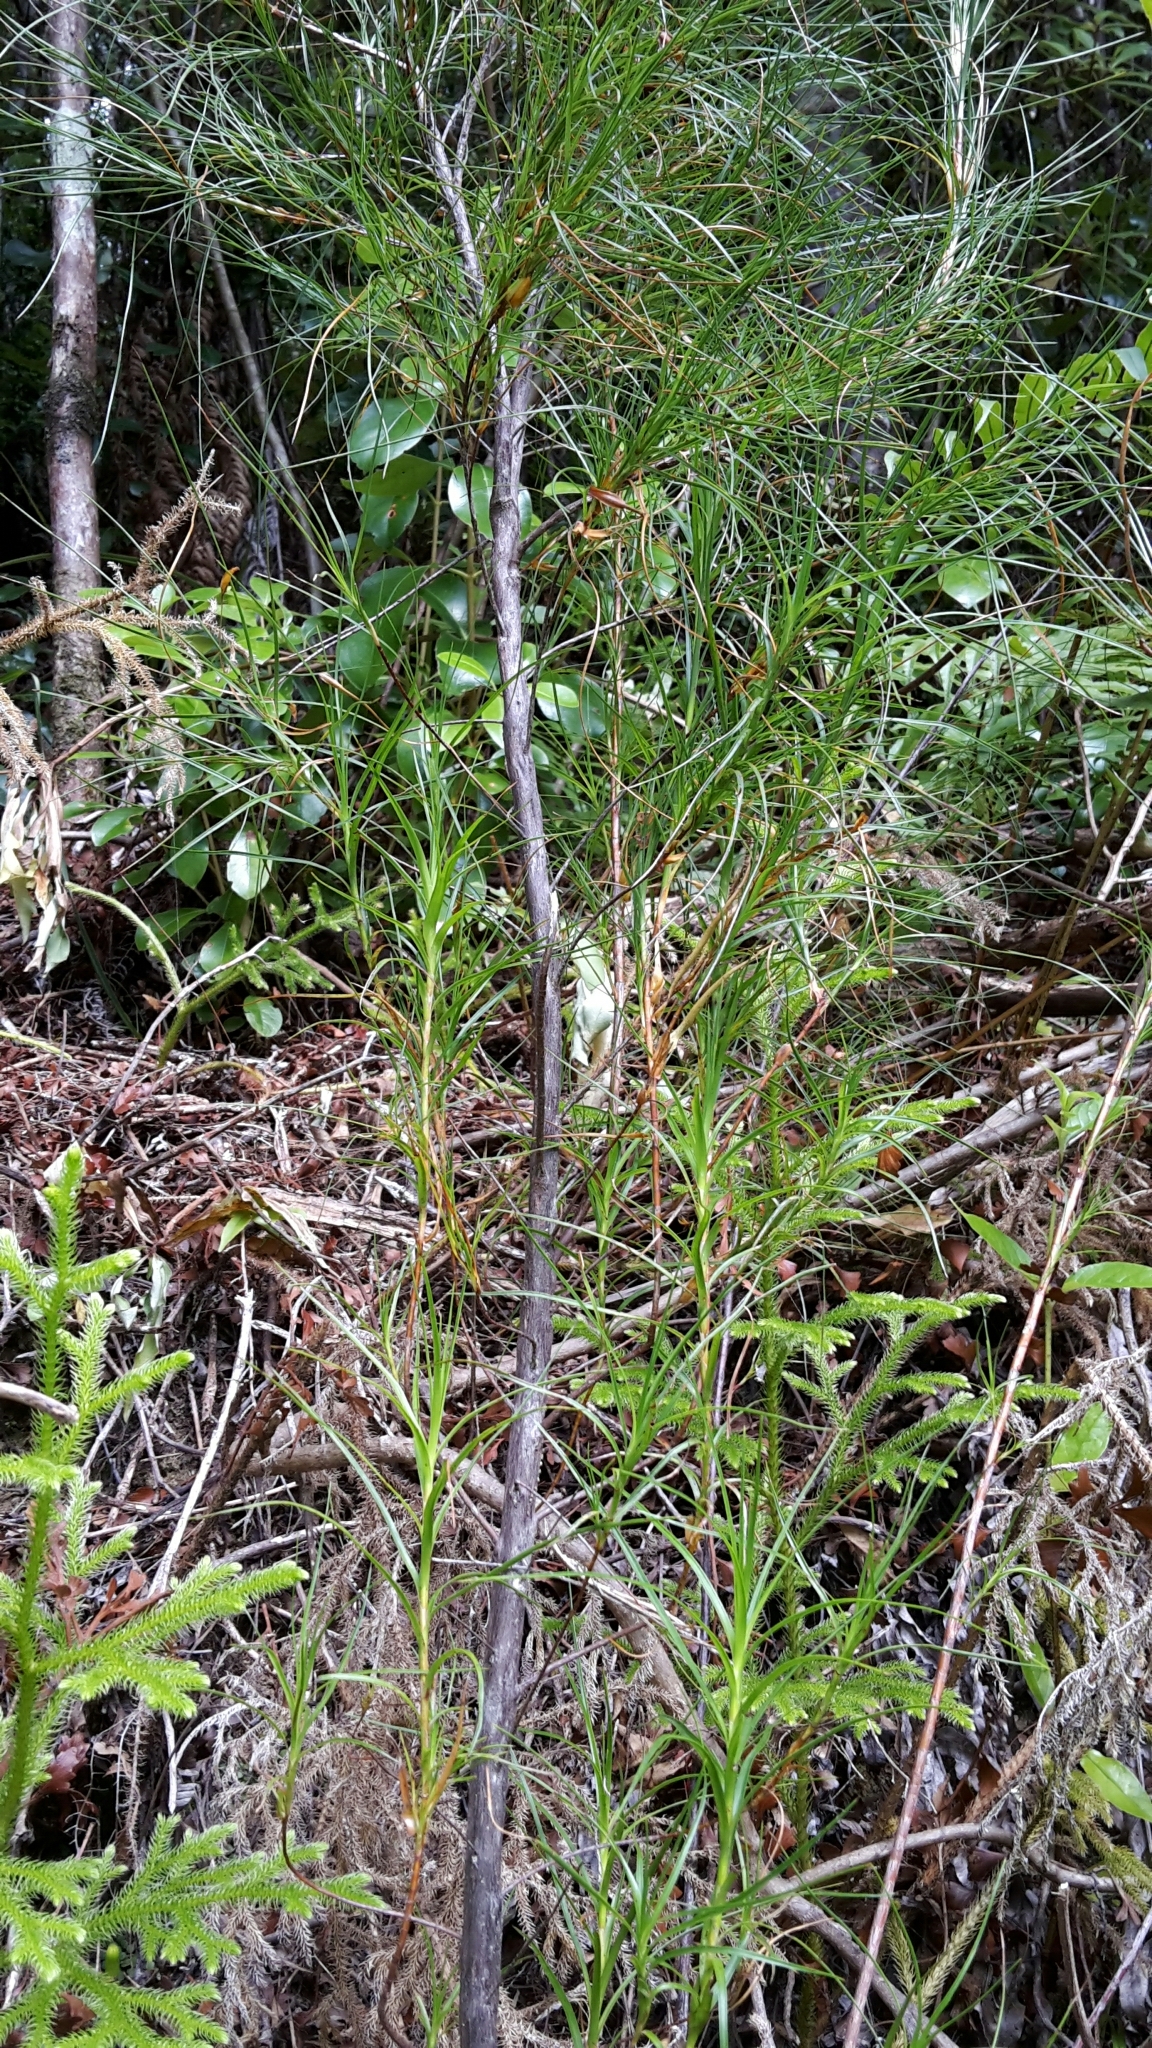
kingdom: Plantae
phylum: Tracheophyta
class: Magnoliopsida
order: Ericales
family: Ericaceae
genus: Dracophyllum
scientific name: Dracophyllum lessonianum
